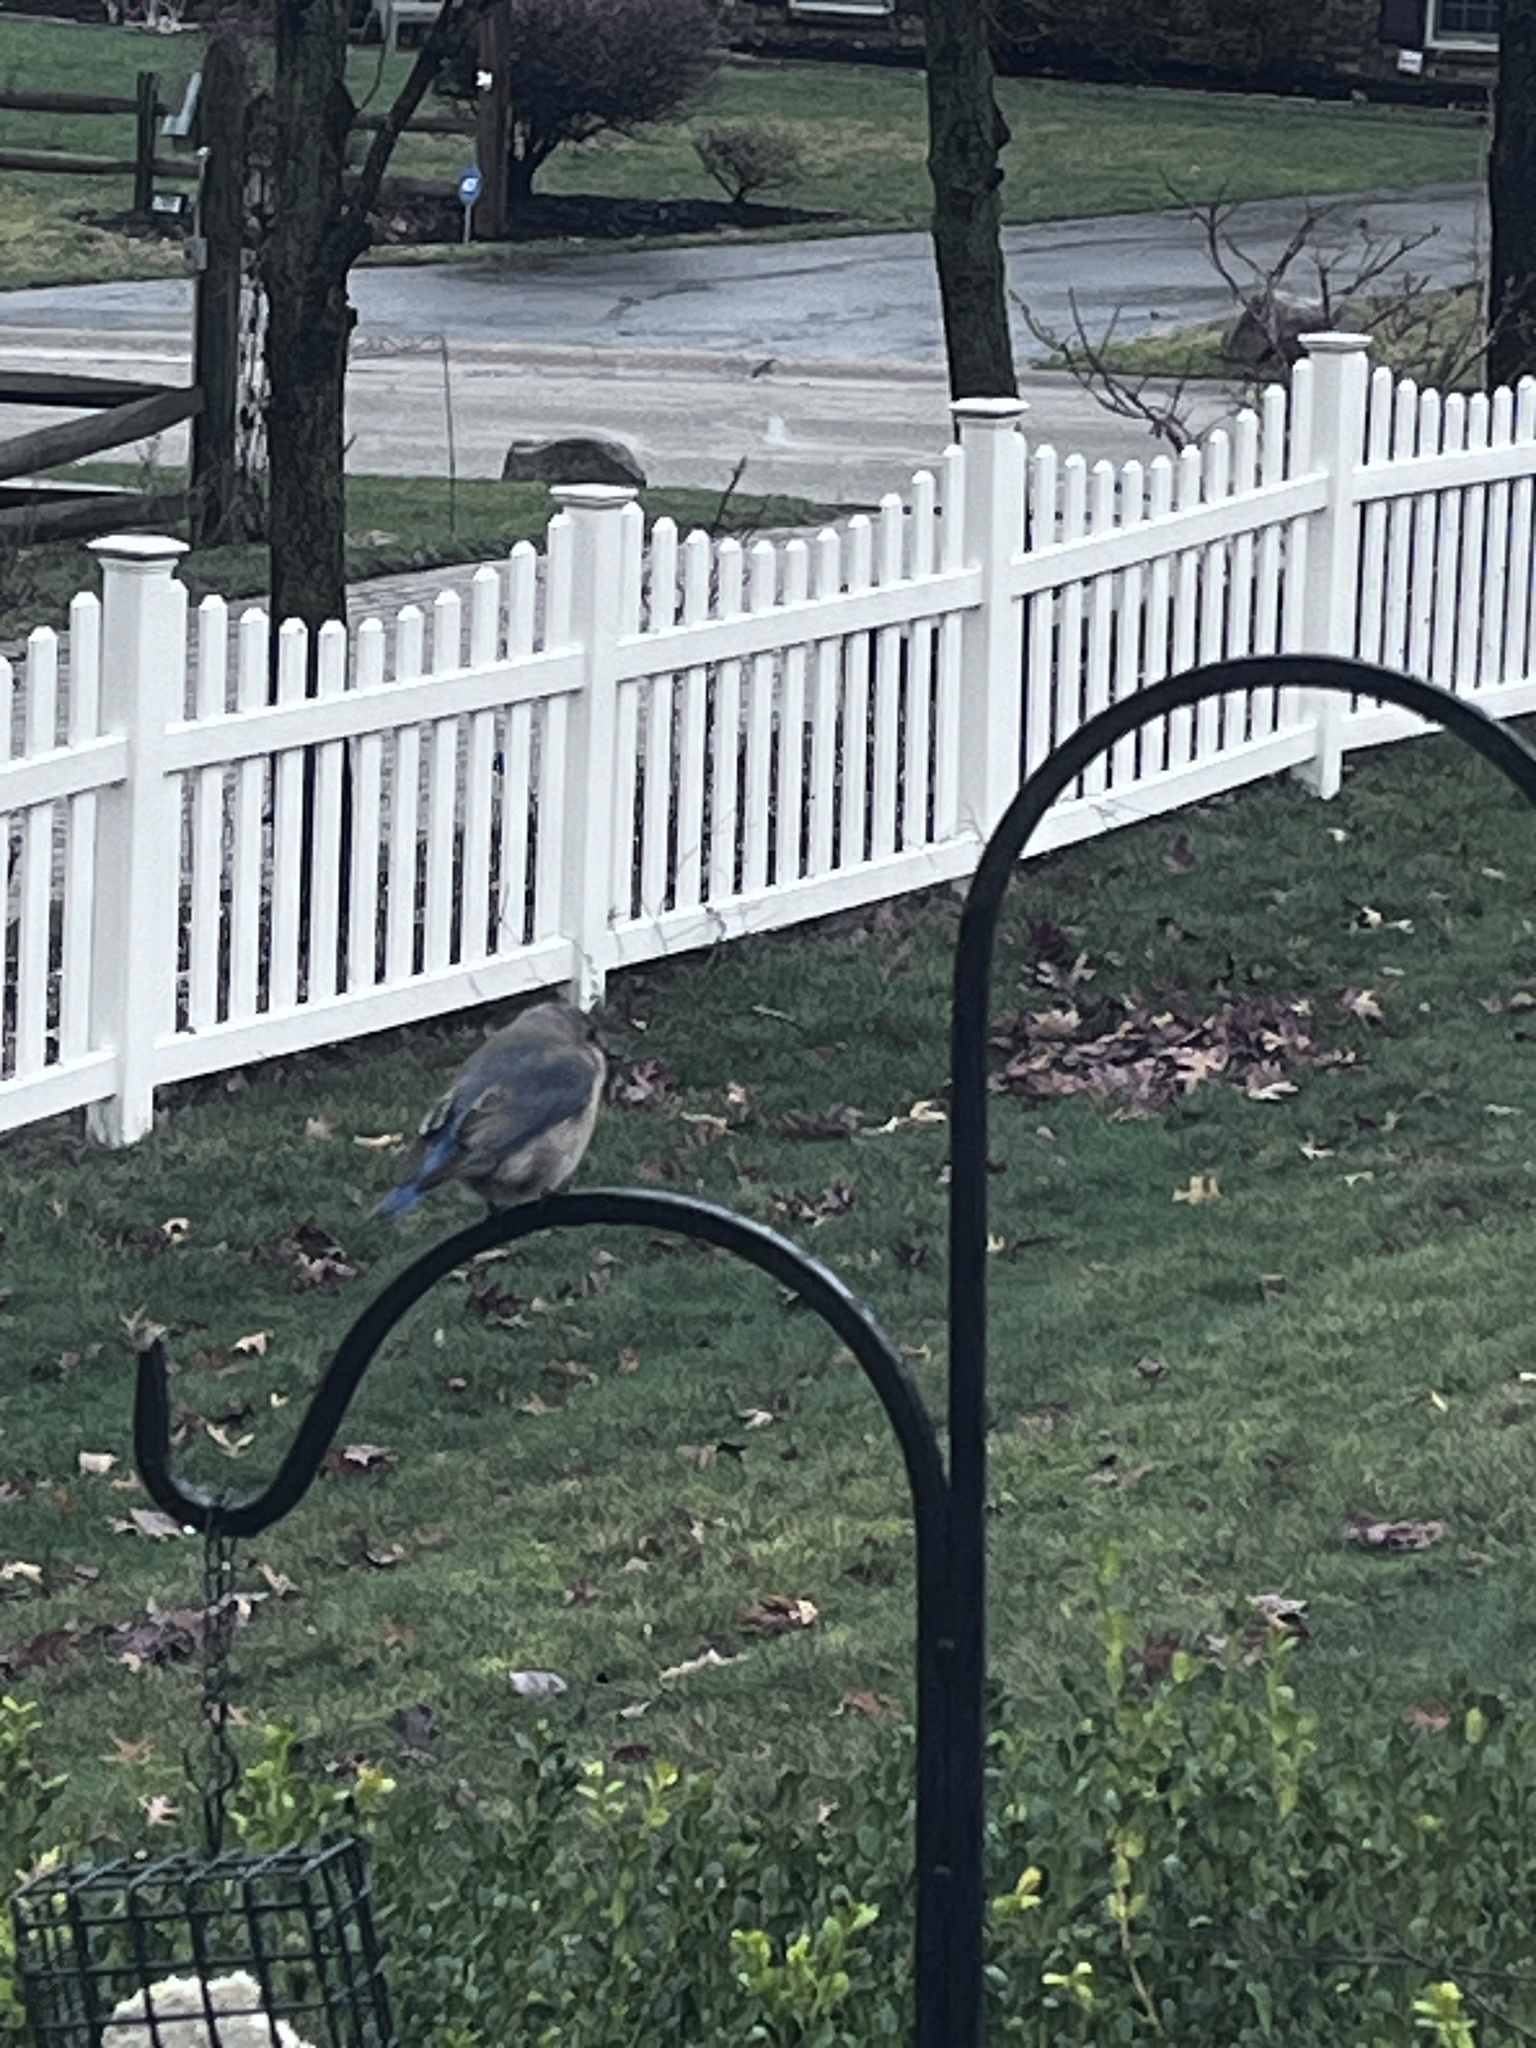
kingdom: Animalia
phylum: Chordata
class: Aves
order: Passeriformes
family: Turdidae
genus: Sialia
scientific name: Sialia sialis
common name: Eastern bluebird
